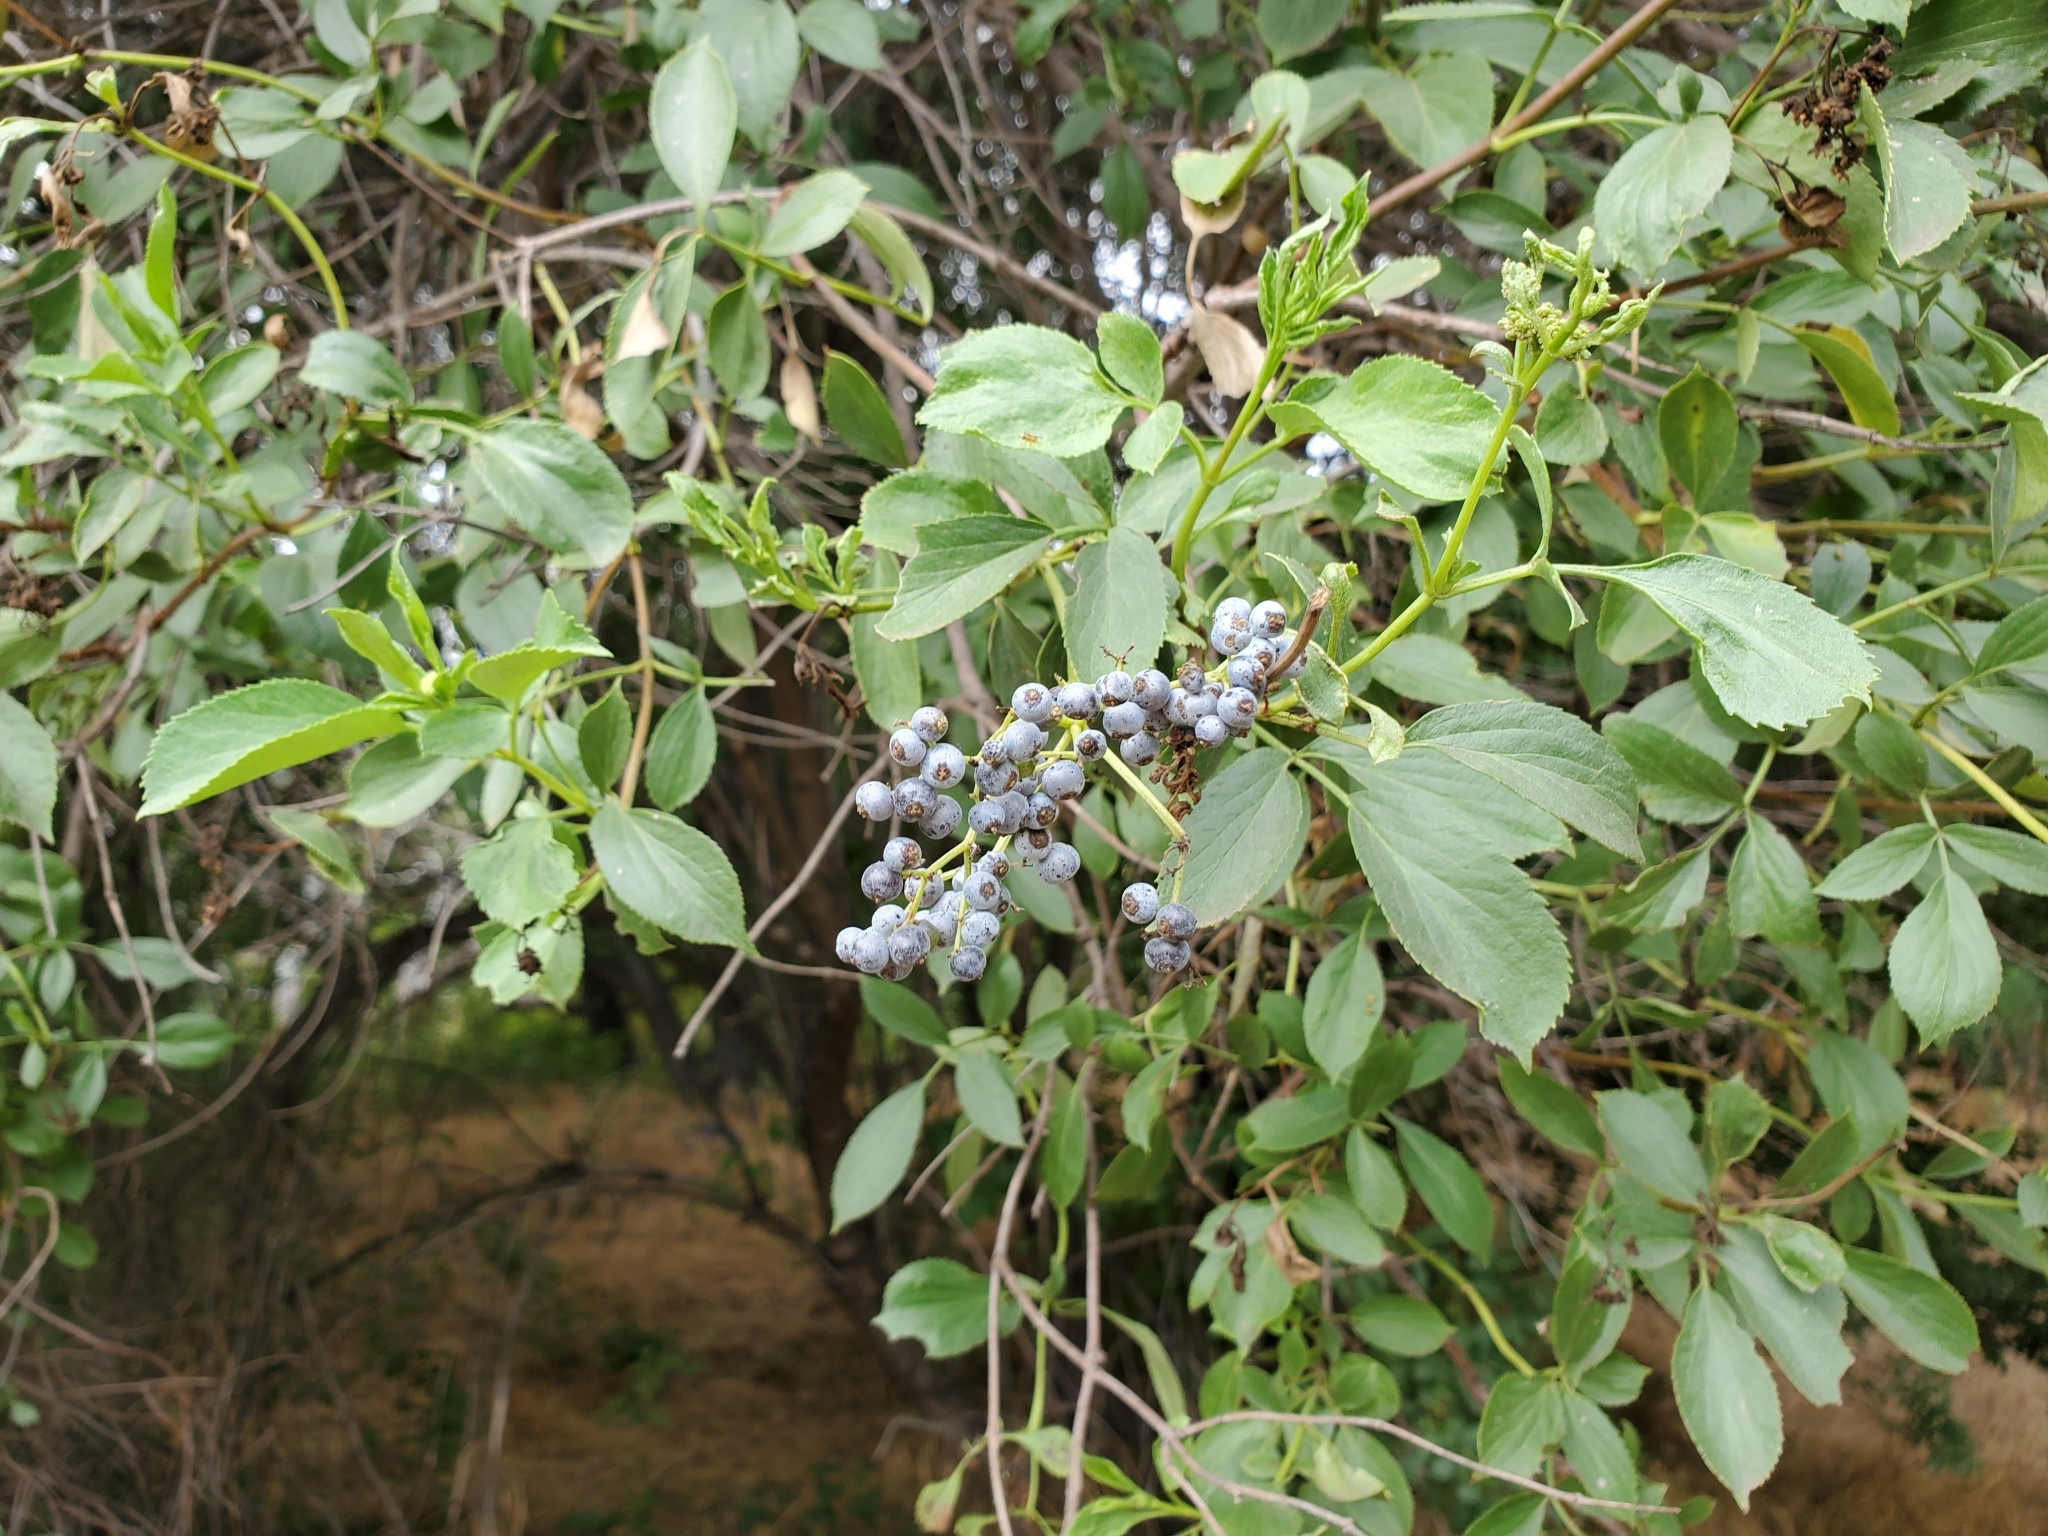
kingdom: Plantae
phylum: Tracheophyta
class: Magnoliopsida
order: Dipsacales
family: Viburnaceae
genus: Sambucus
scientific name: Sambucus cerulea
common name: Blue elder
